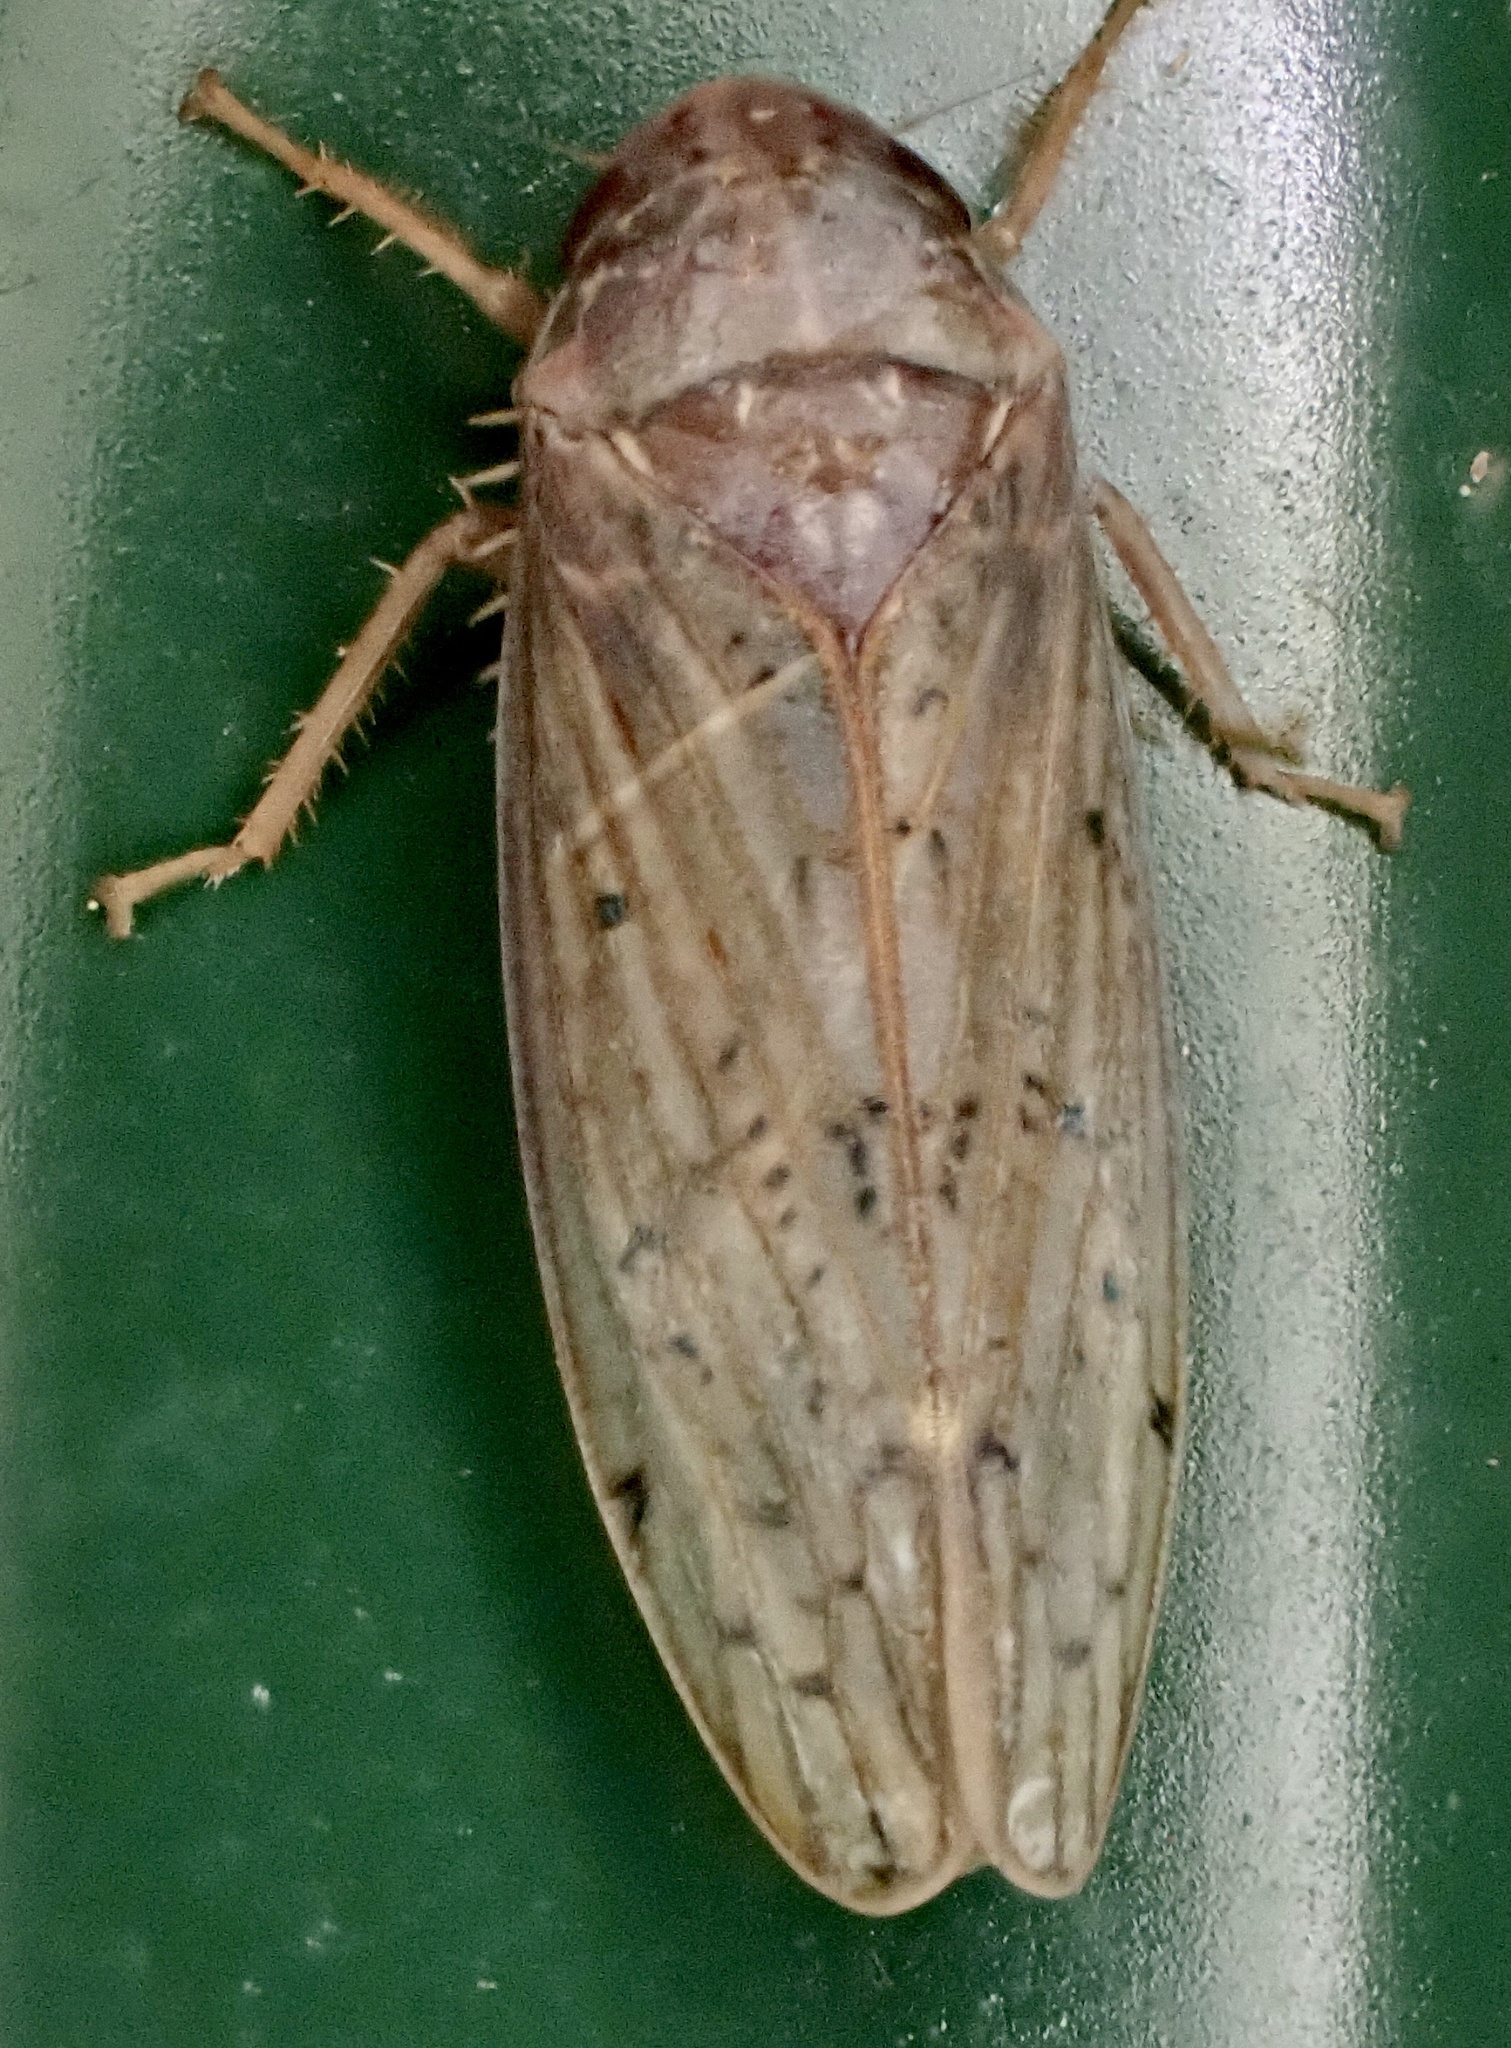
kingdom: Animalia
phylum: Arthropoda
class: Insecta
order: Hemiptera
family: Cicadellidae
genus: Ponana
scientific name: Ponana rubida
